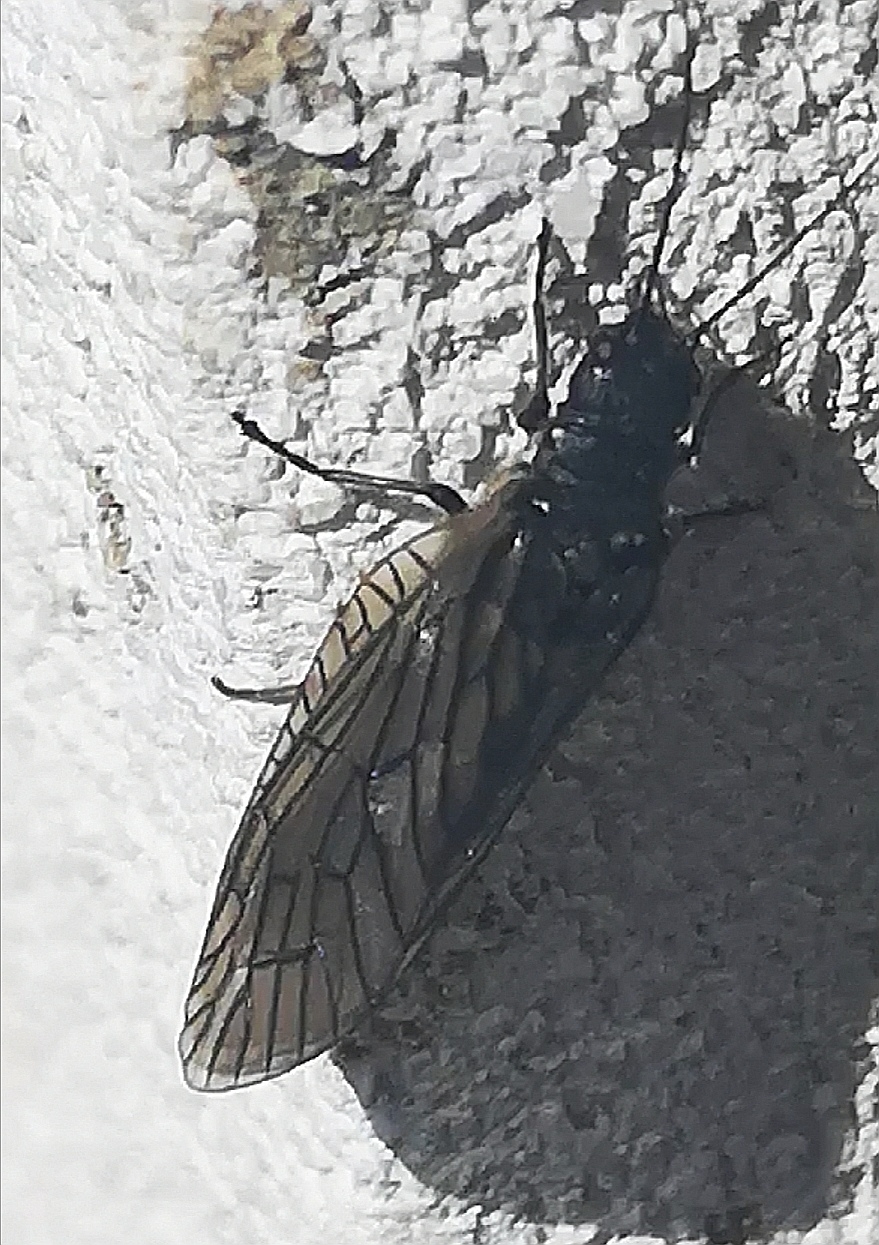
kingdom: Animalia
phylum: Arthropoda
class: Insecta
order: Megaloptera
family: Sialidae
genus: Sialis
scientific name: Sialis
